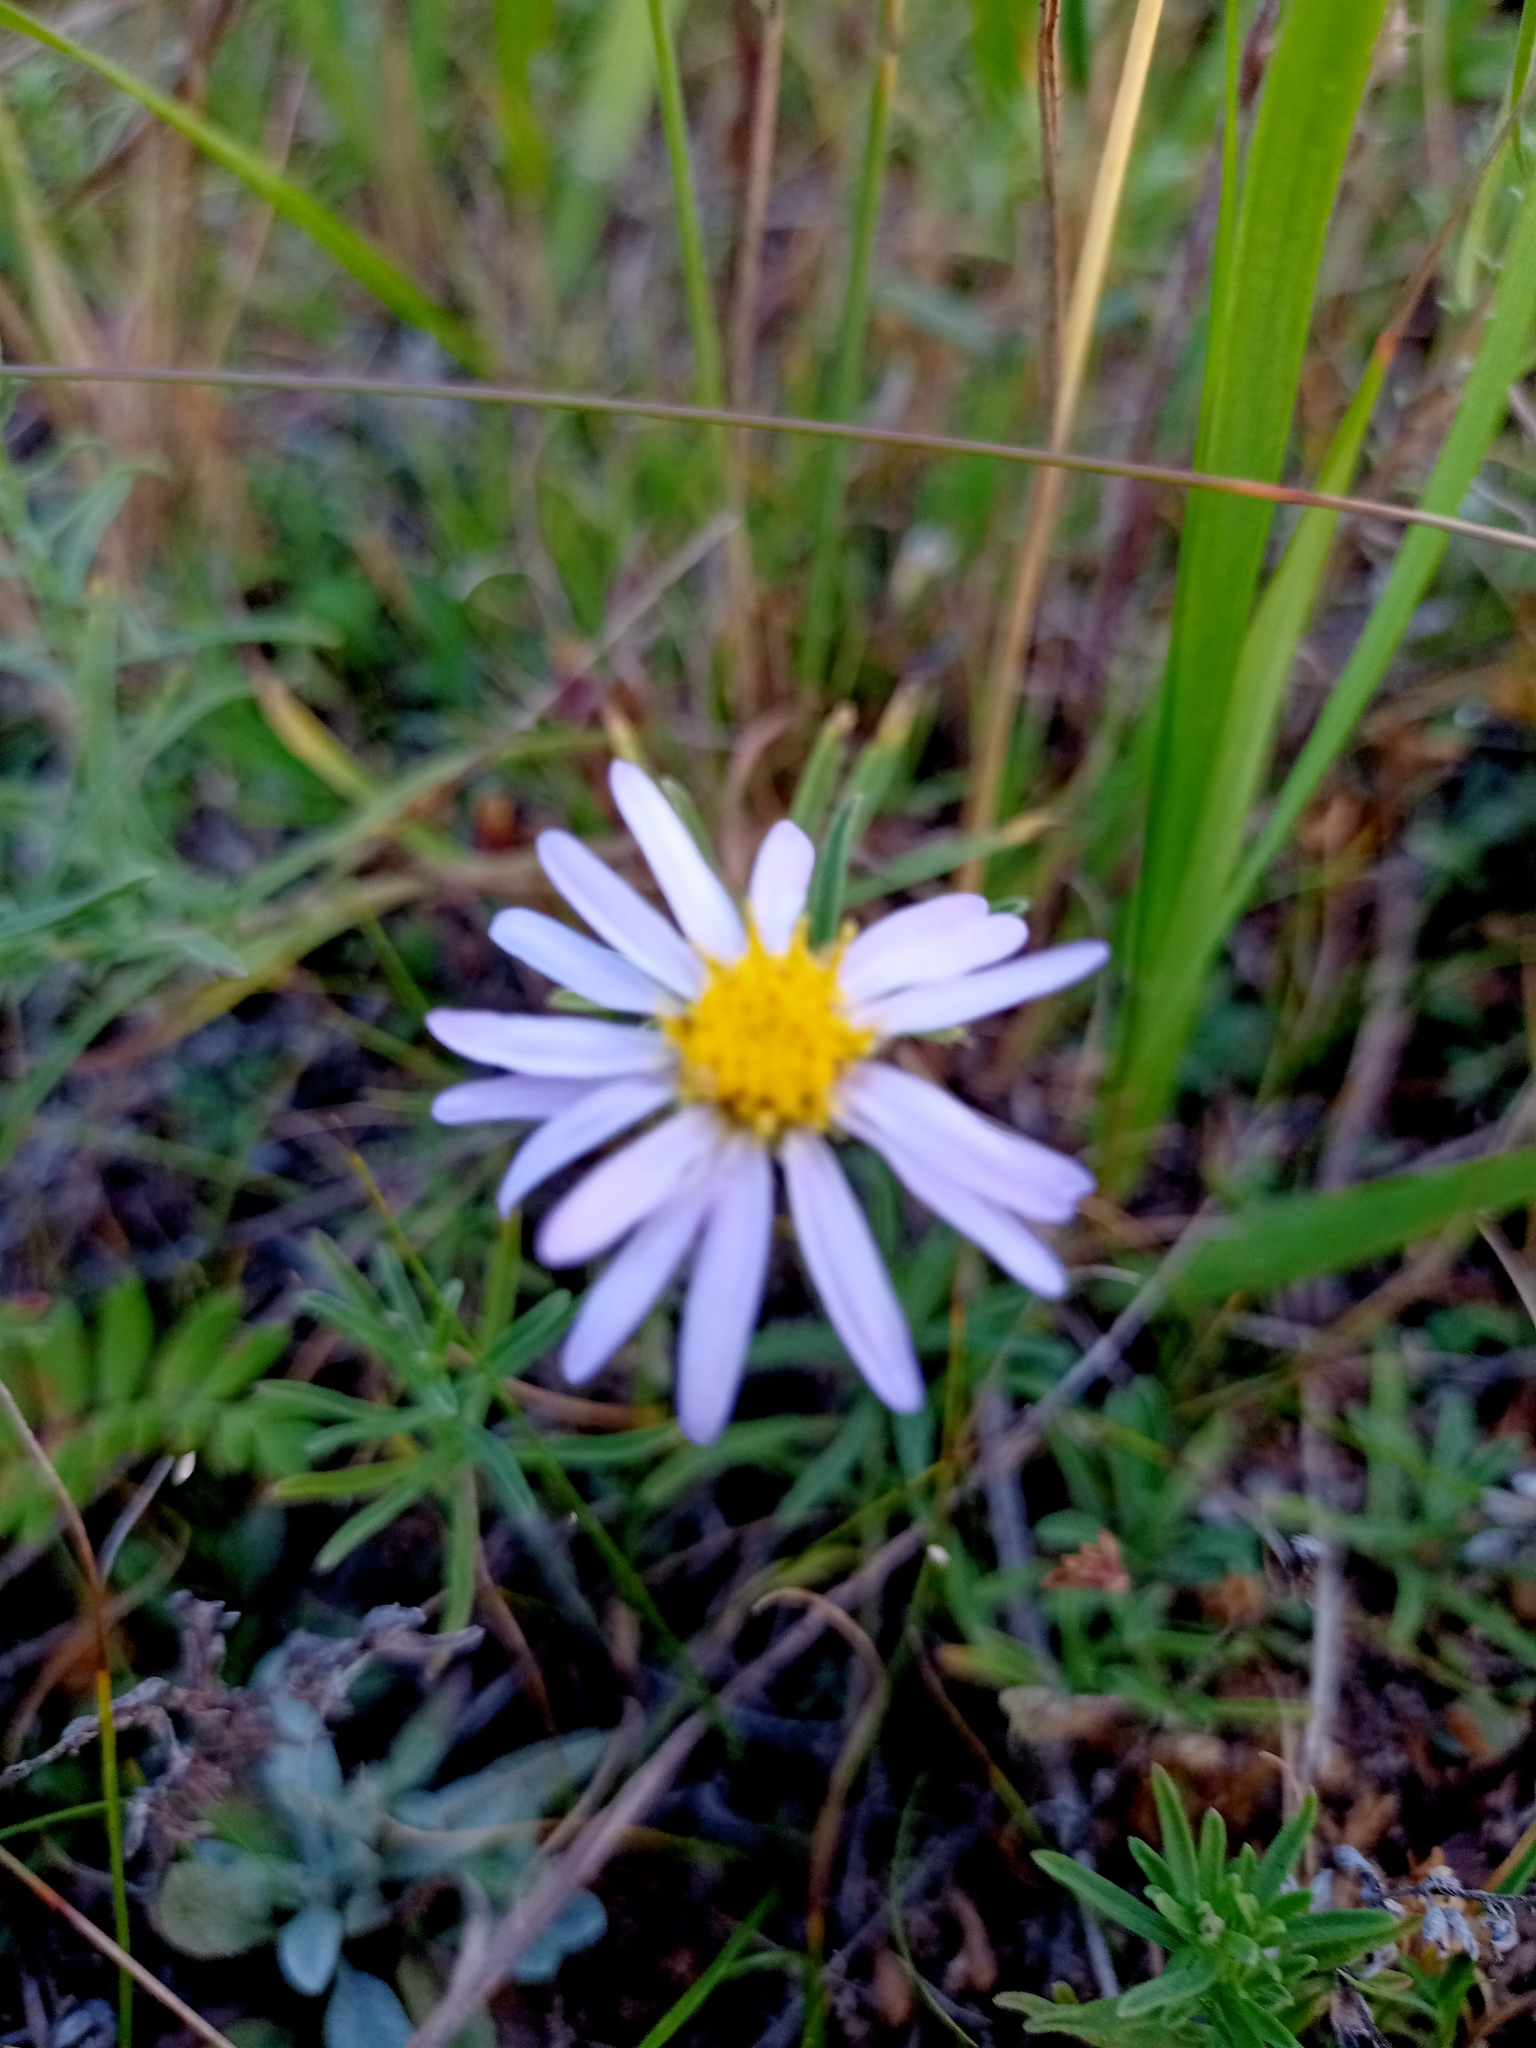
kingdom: Plantae
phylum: Tracheophyta
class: Magnoliopsida
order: Asterales
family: Asteraceae
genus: Heteropappus
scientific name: Heteropappus altaicus
